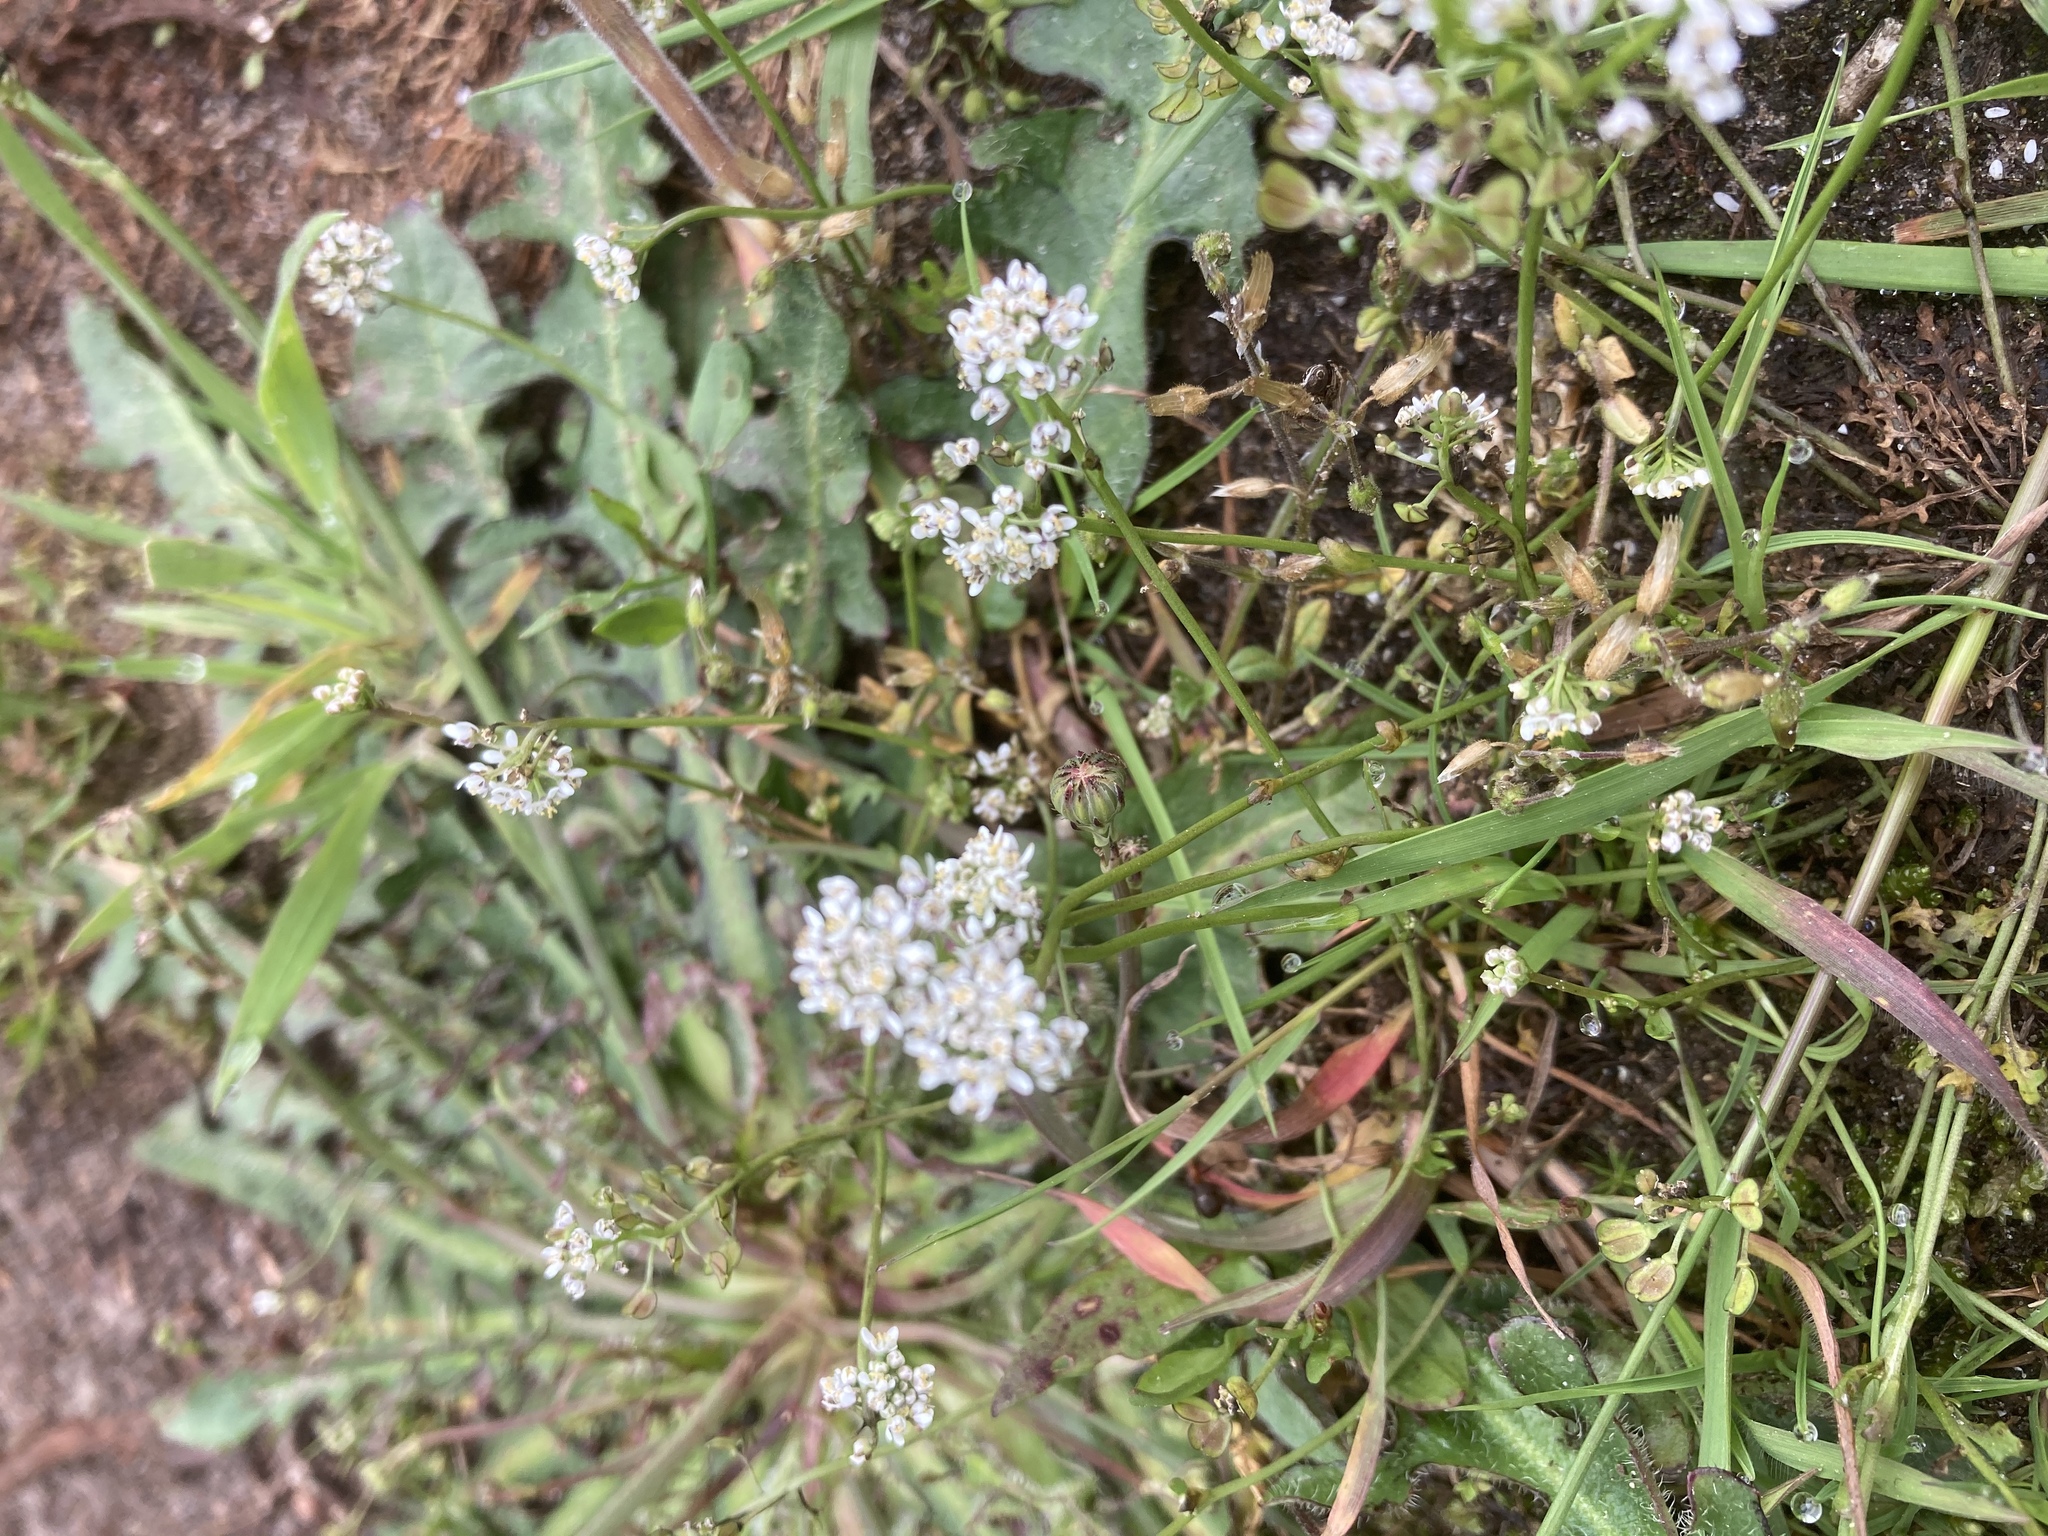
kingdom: Plantae
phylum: Tracheophyta
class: Magnoliopsida
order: Brassicales
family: Brassicaceae
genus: Teesdalia
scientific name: Teesdalia nudicaulis
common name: Shepherd's cress
